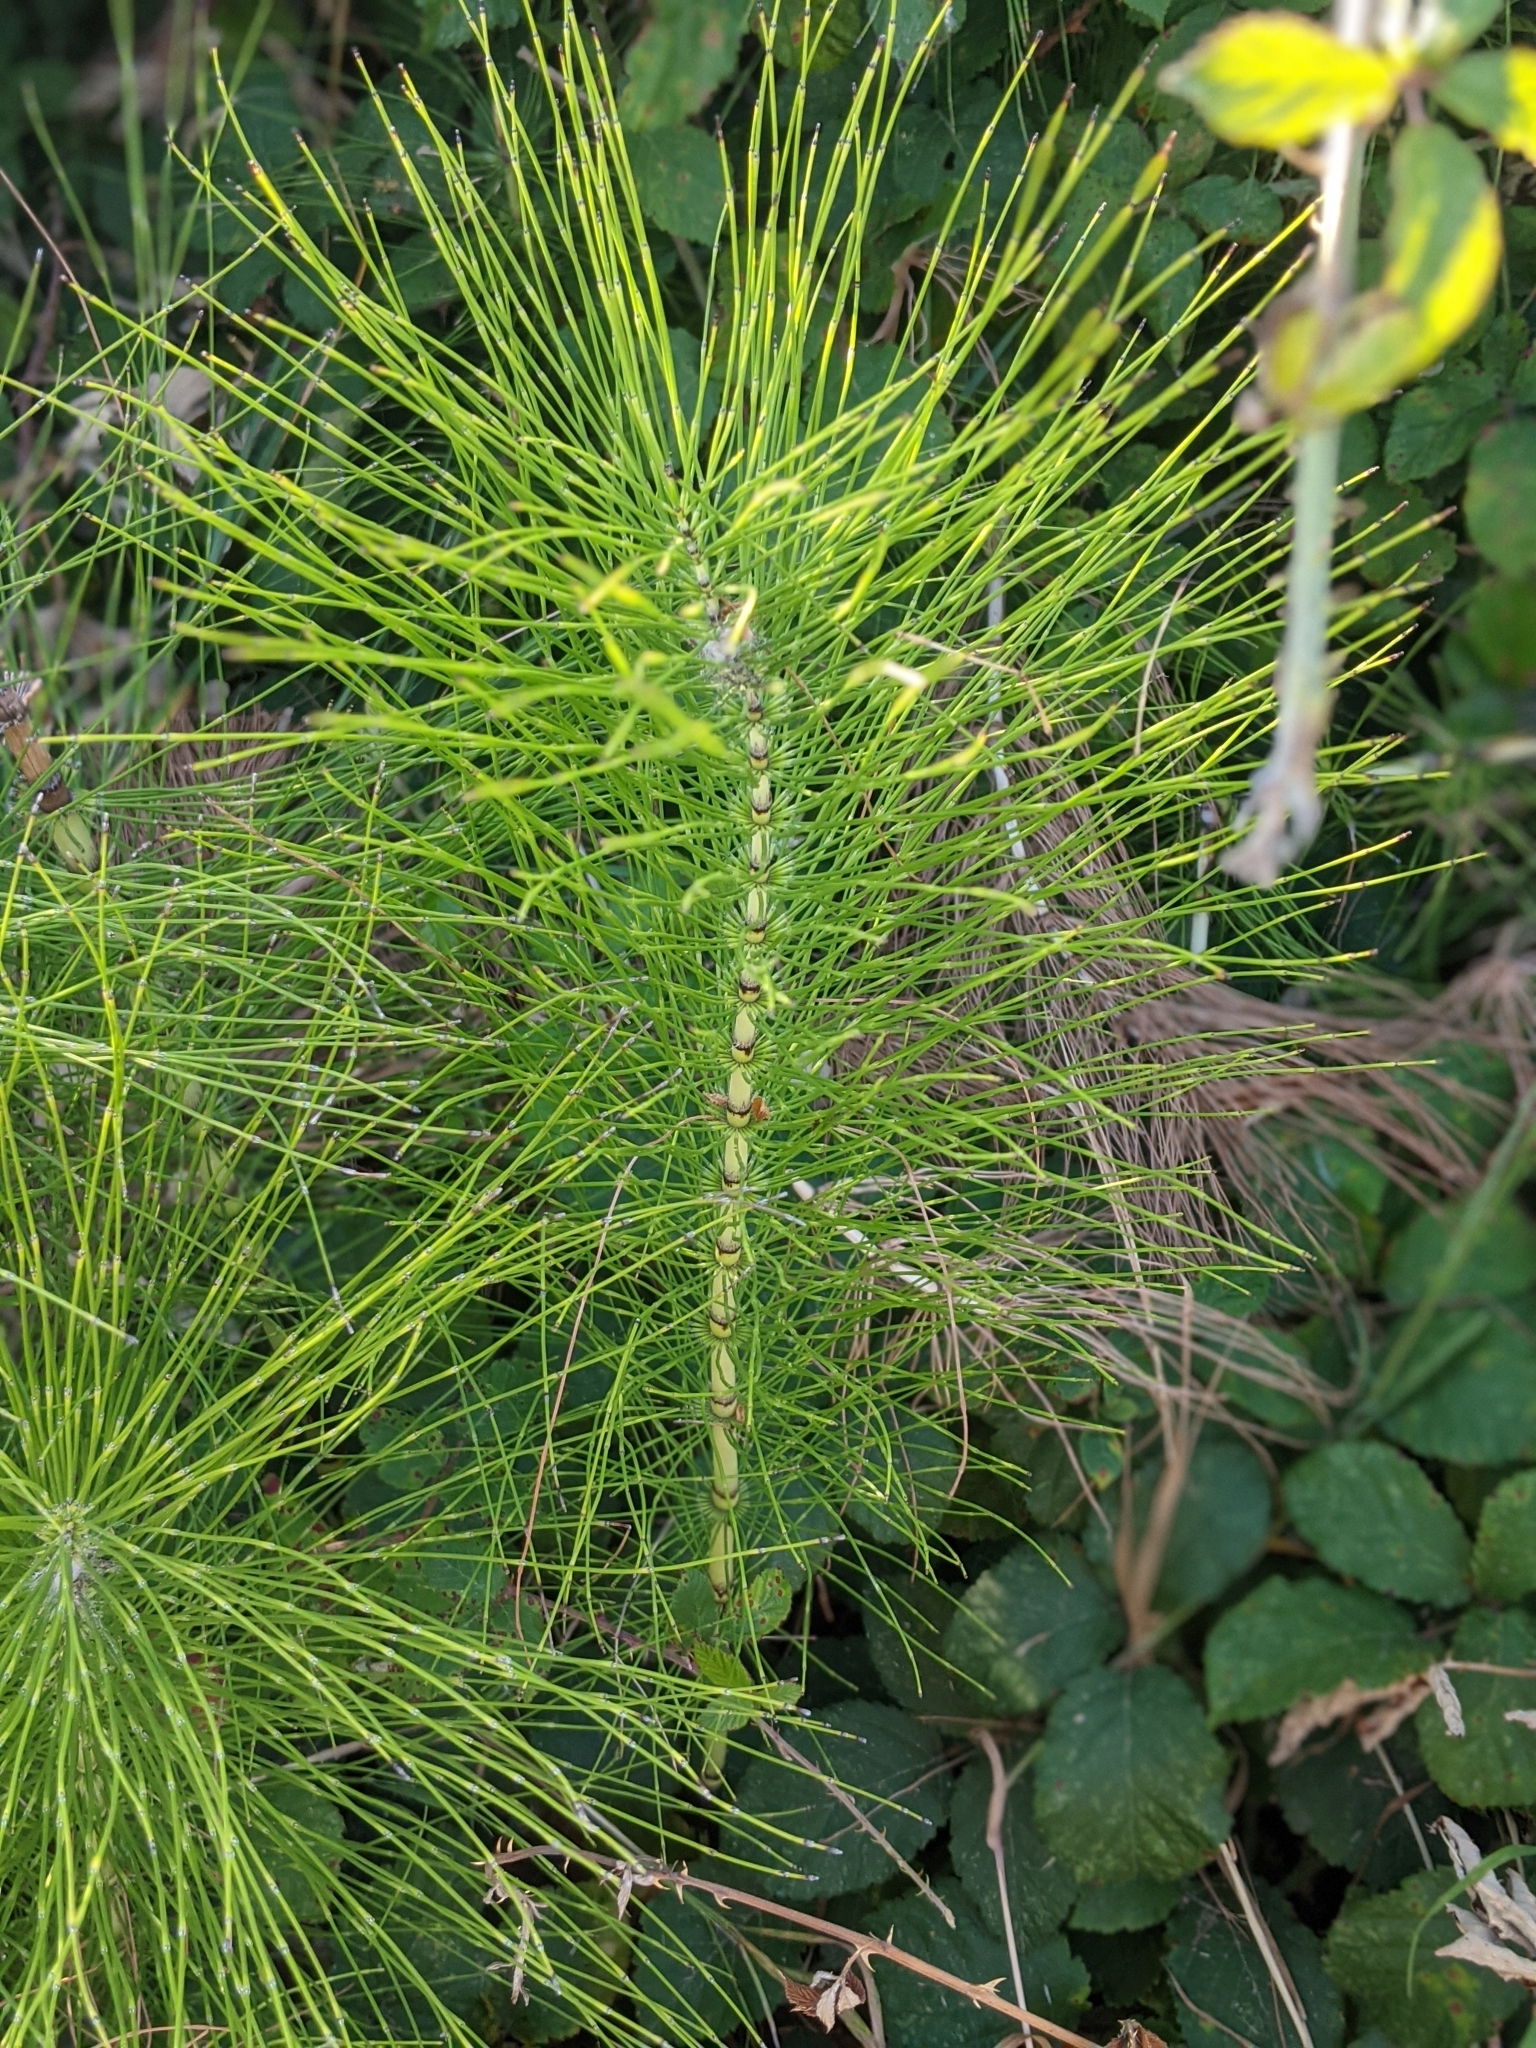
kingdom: Plantae
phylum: Tracheophyta
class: Polypodiopsida
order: Equisetales
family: Equisetaceae
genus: Equisetum
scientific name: Equisetum telmateia
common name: Great horsetail
